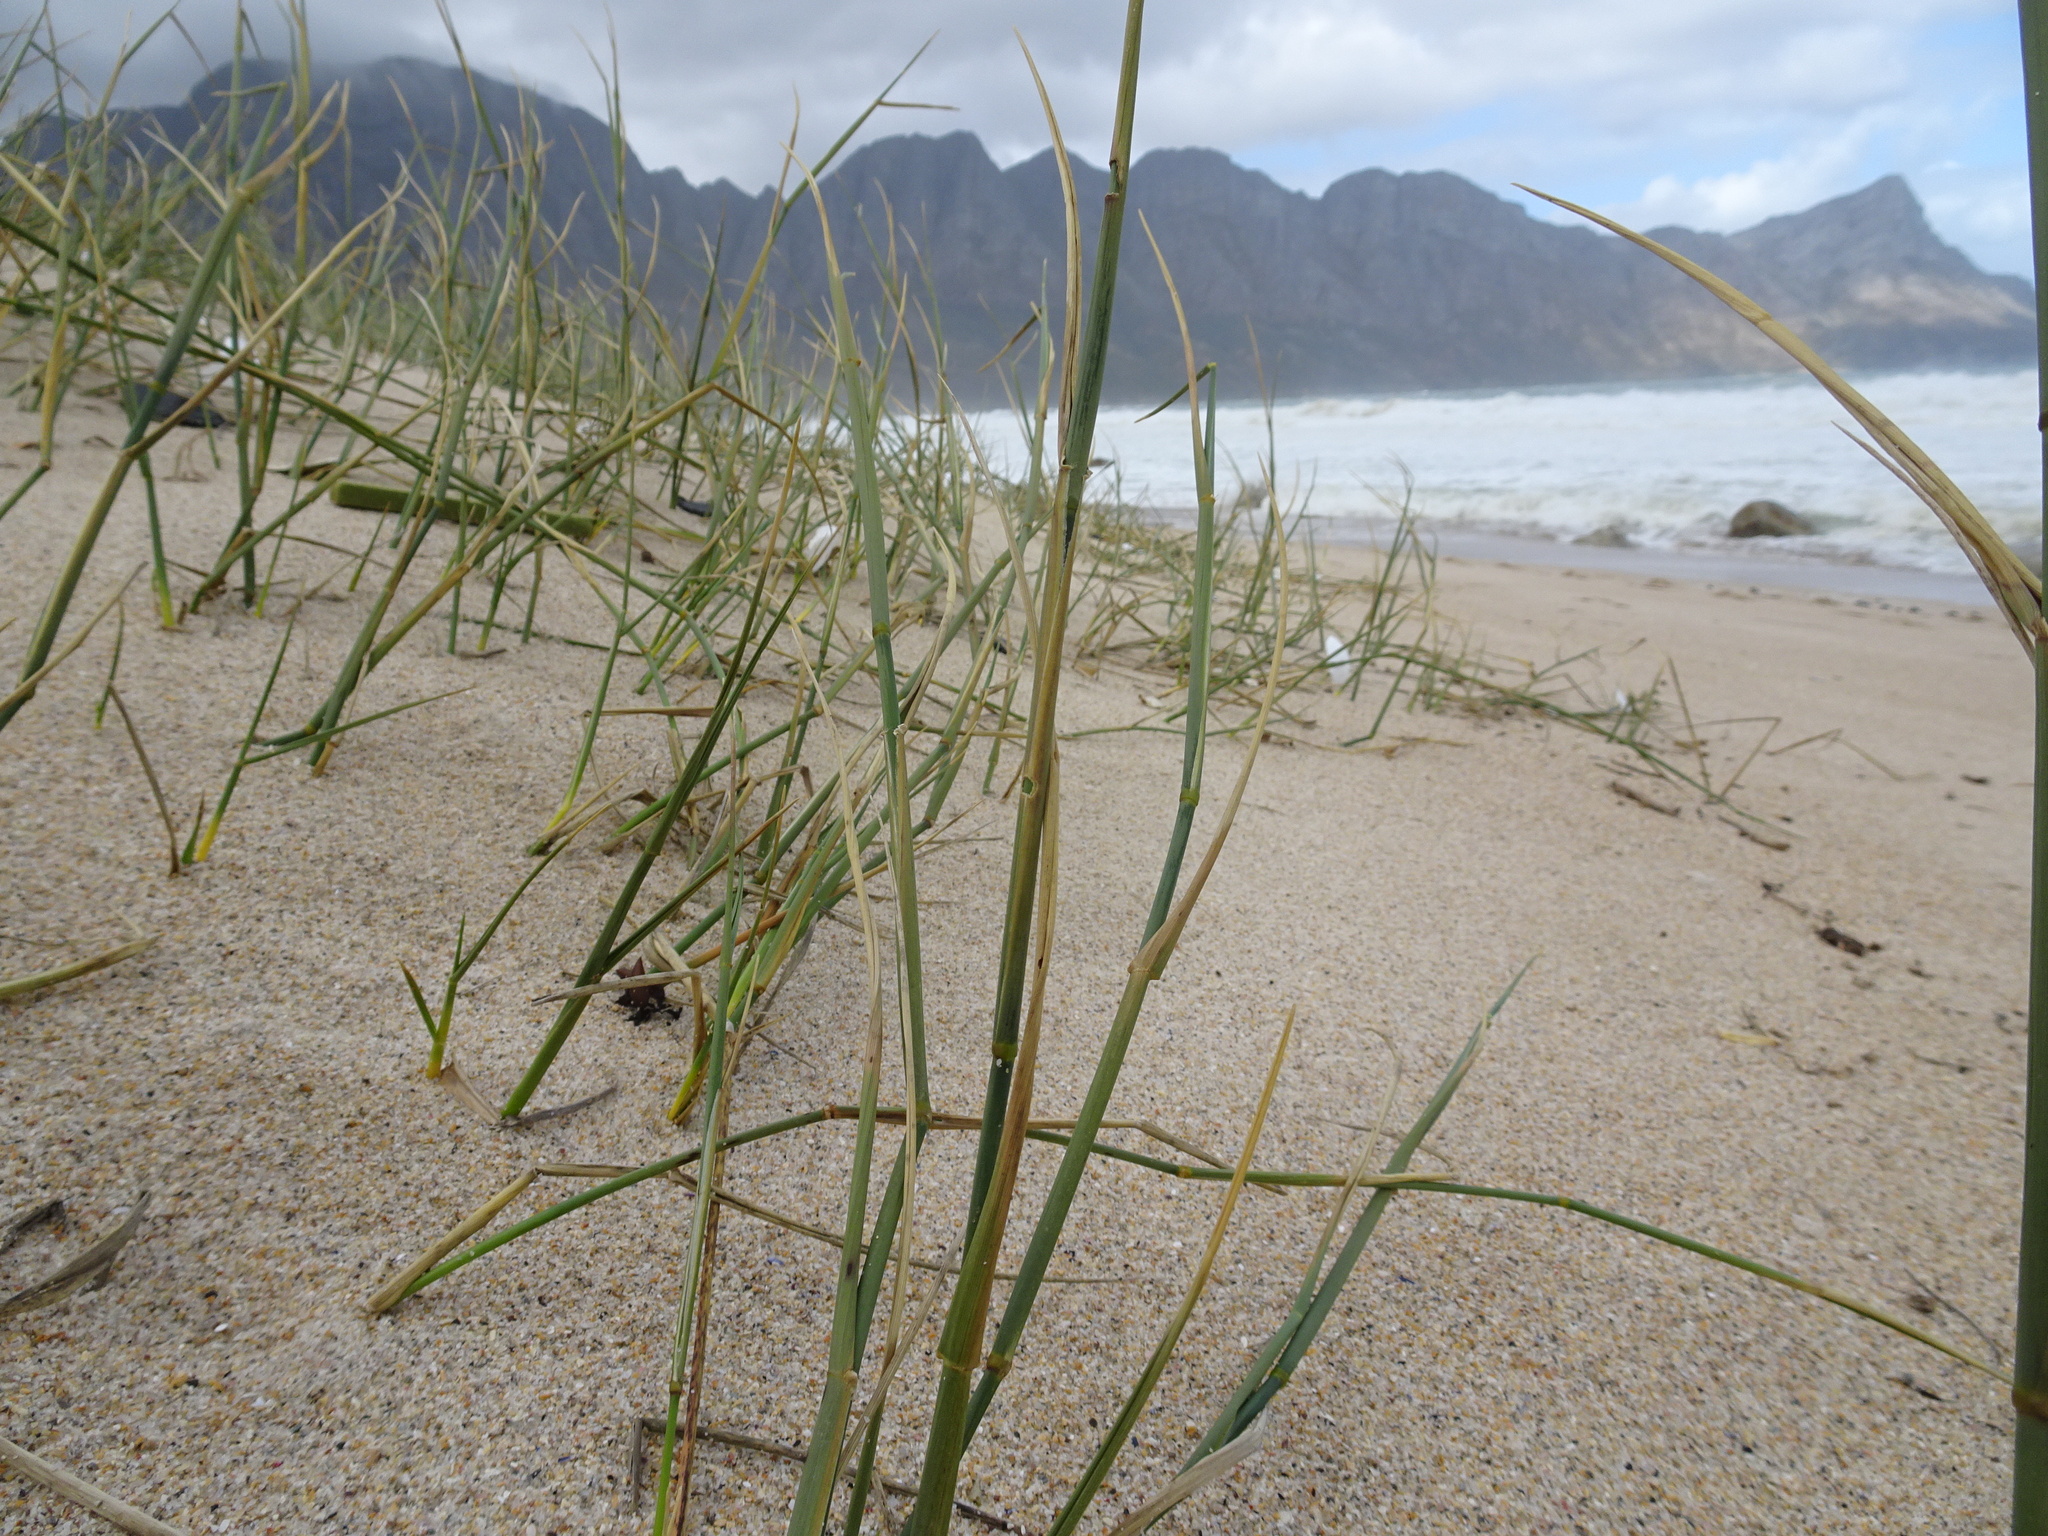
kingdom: Plantae
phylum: Tracheophyta
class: Liliopsida
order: Poales
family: Poaceae
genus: Thinopyrum
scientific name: Thinopyrum distichum
